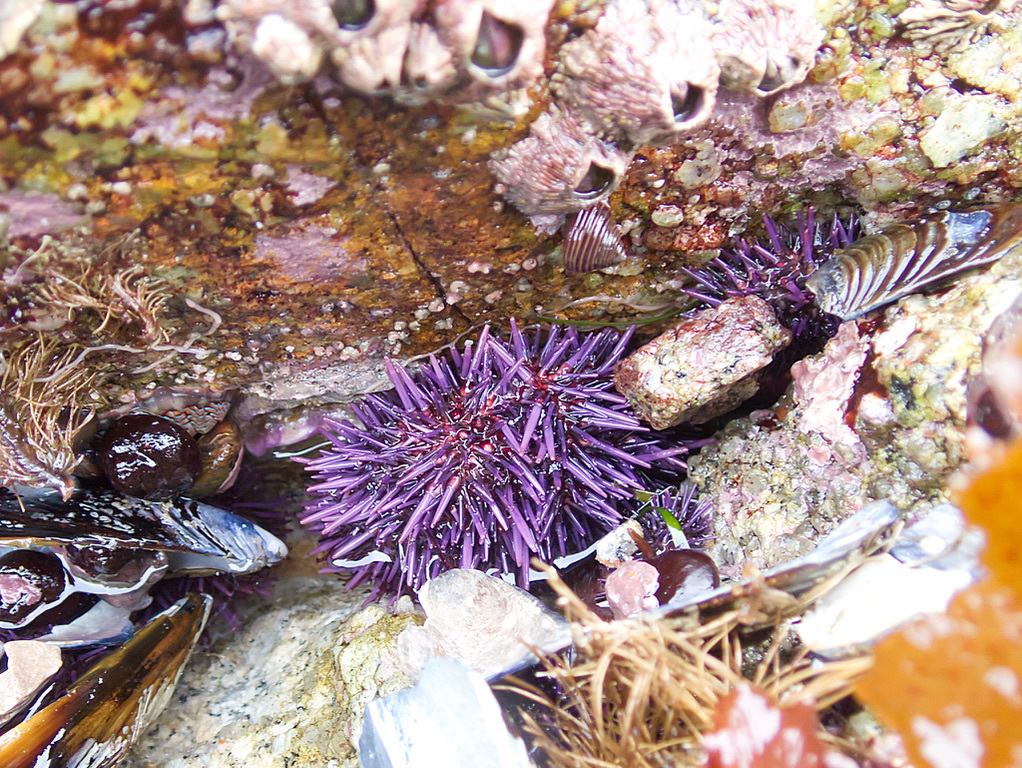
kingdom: Animalia
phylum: Echinodermata
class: Echinoidea
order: Camarodonta
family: Strongylocentrotidae
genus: Strongylocentrotus
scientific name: Strongylocentrotus purpuratus
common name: Purple sea urchin
